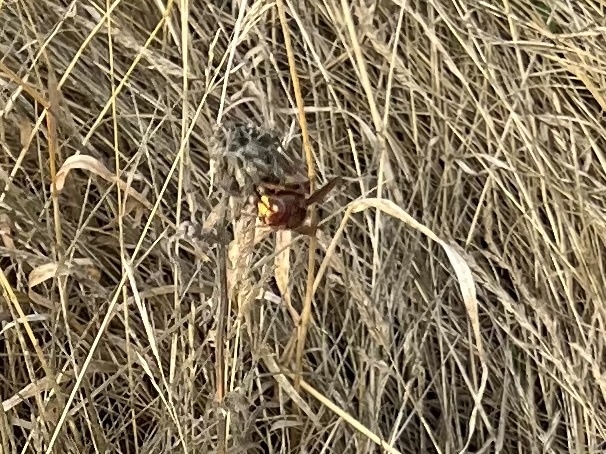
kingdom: Animalia
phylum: Arthropoda
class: Insecta
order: Hymenoptera
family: Vespidae
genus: Vespa
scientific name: Vespa crabro
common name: Hornet
